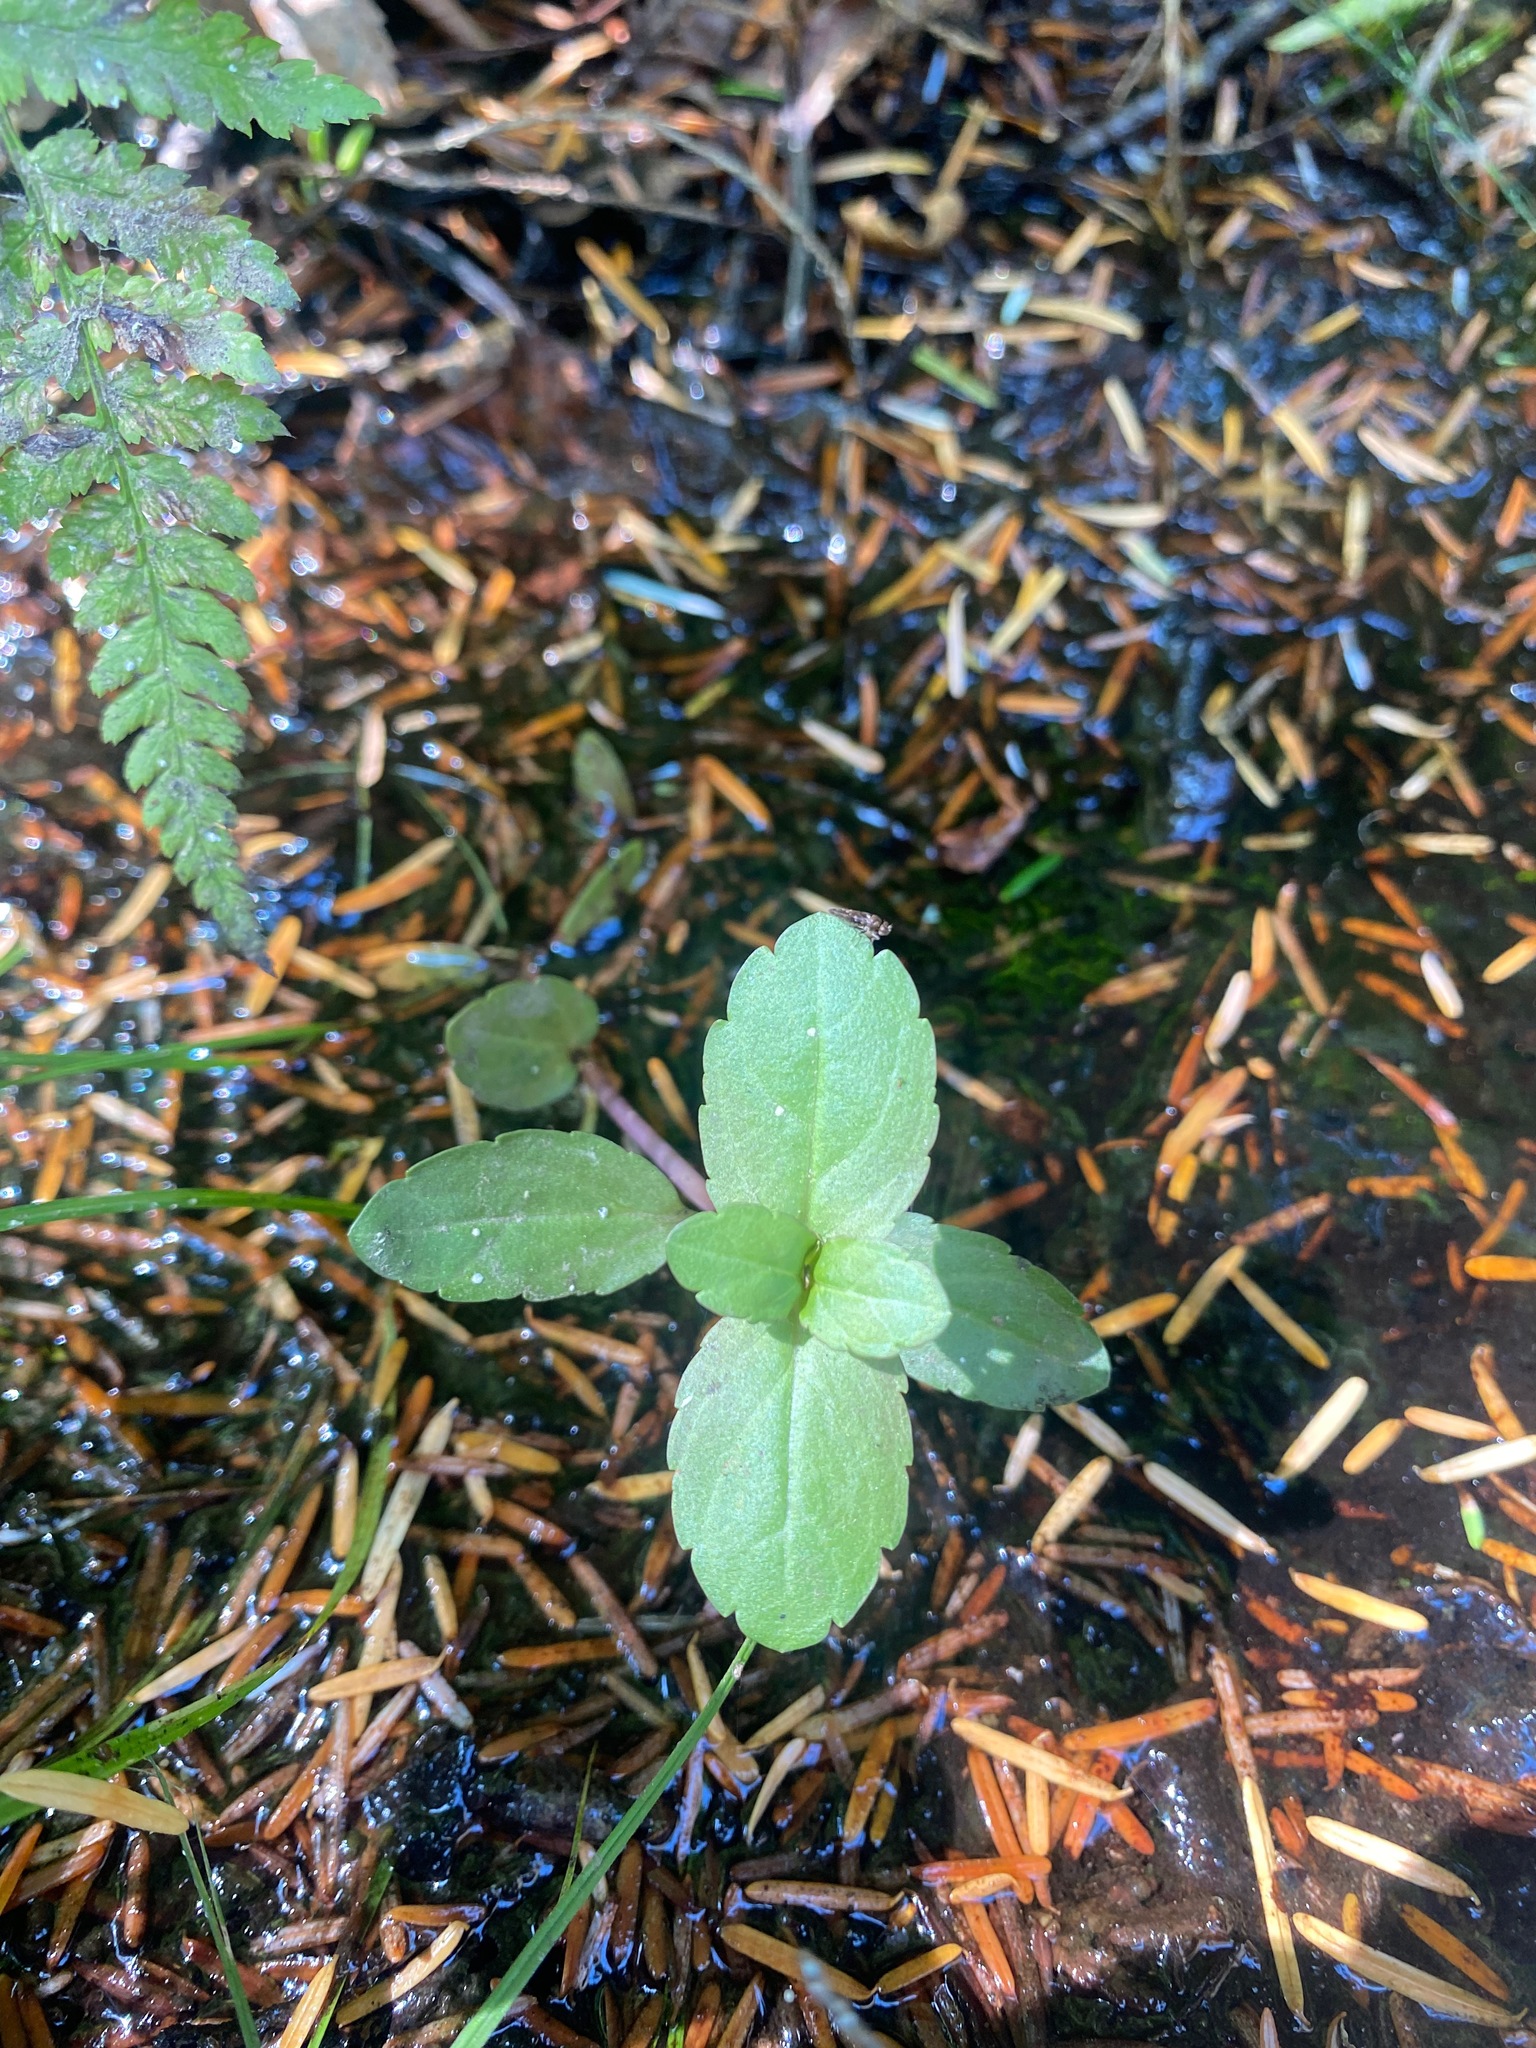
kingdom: Plantae
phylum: Tracheophyta
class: Magnoliopsida
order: Lamiales
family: Plantaginaceae
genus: Veronica
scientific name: Veronica americana
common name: American brooklime
